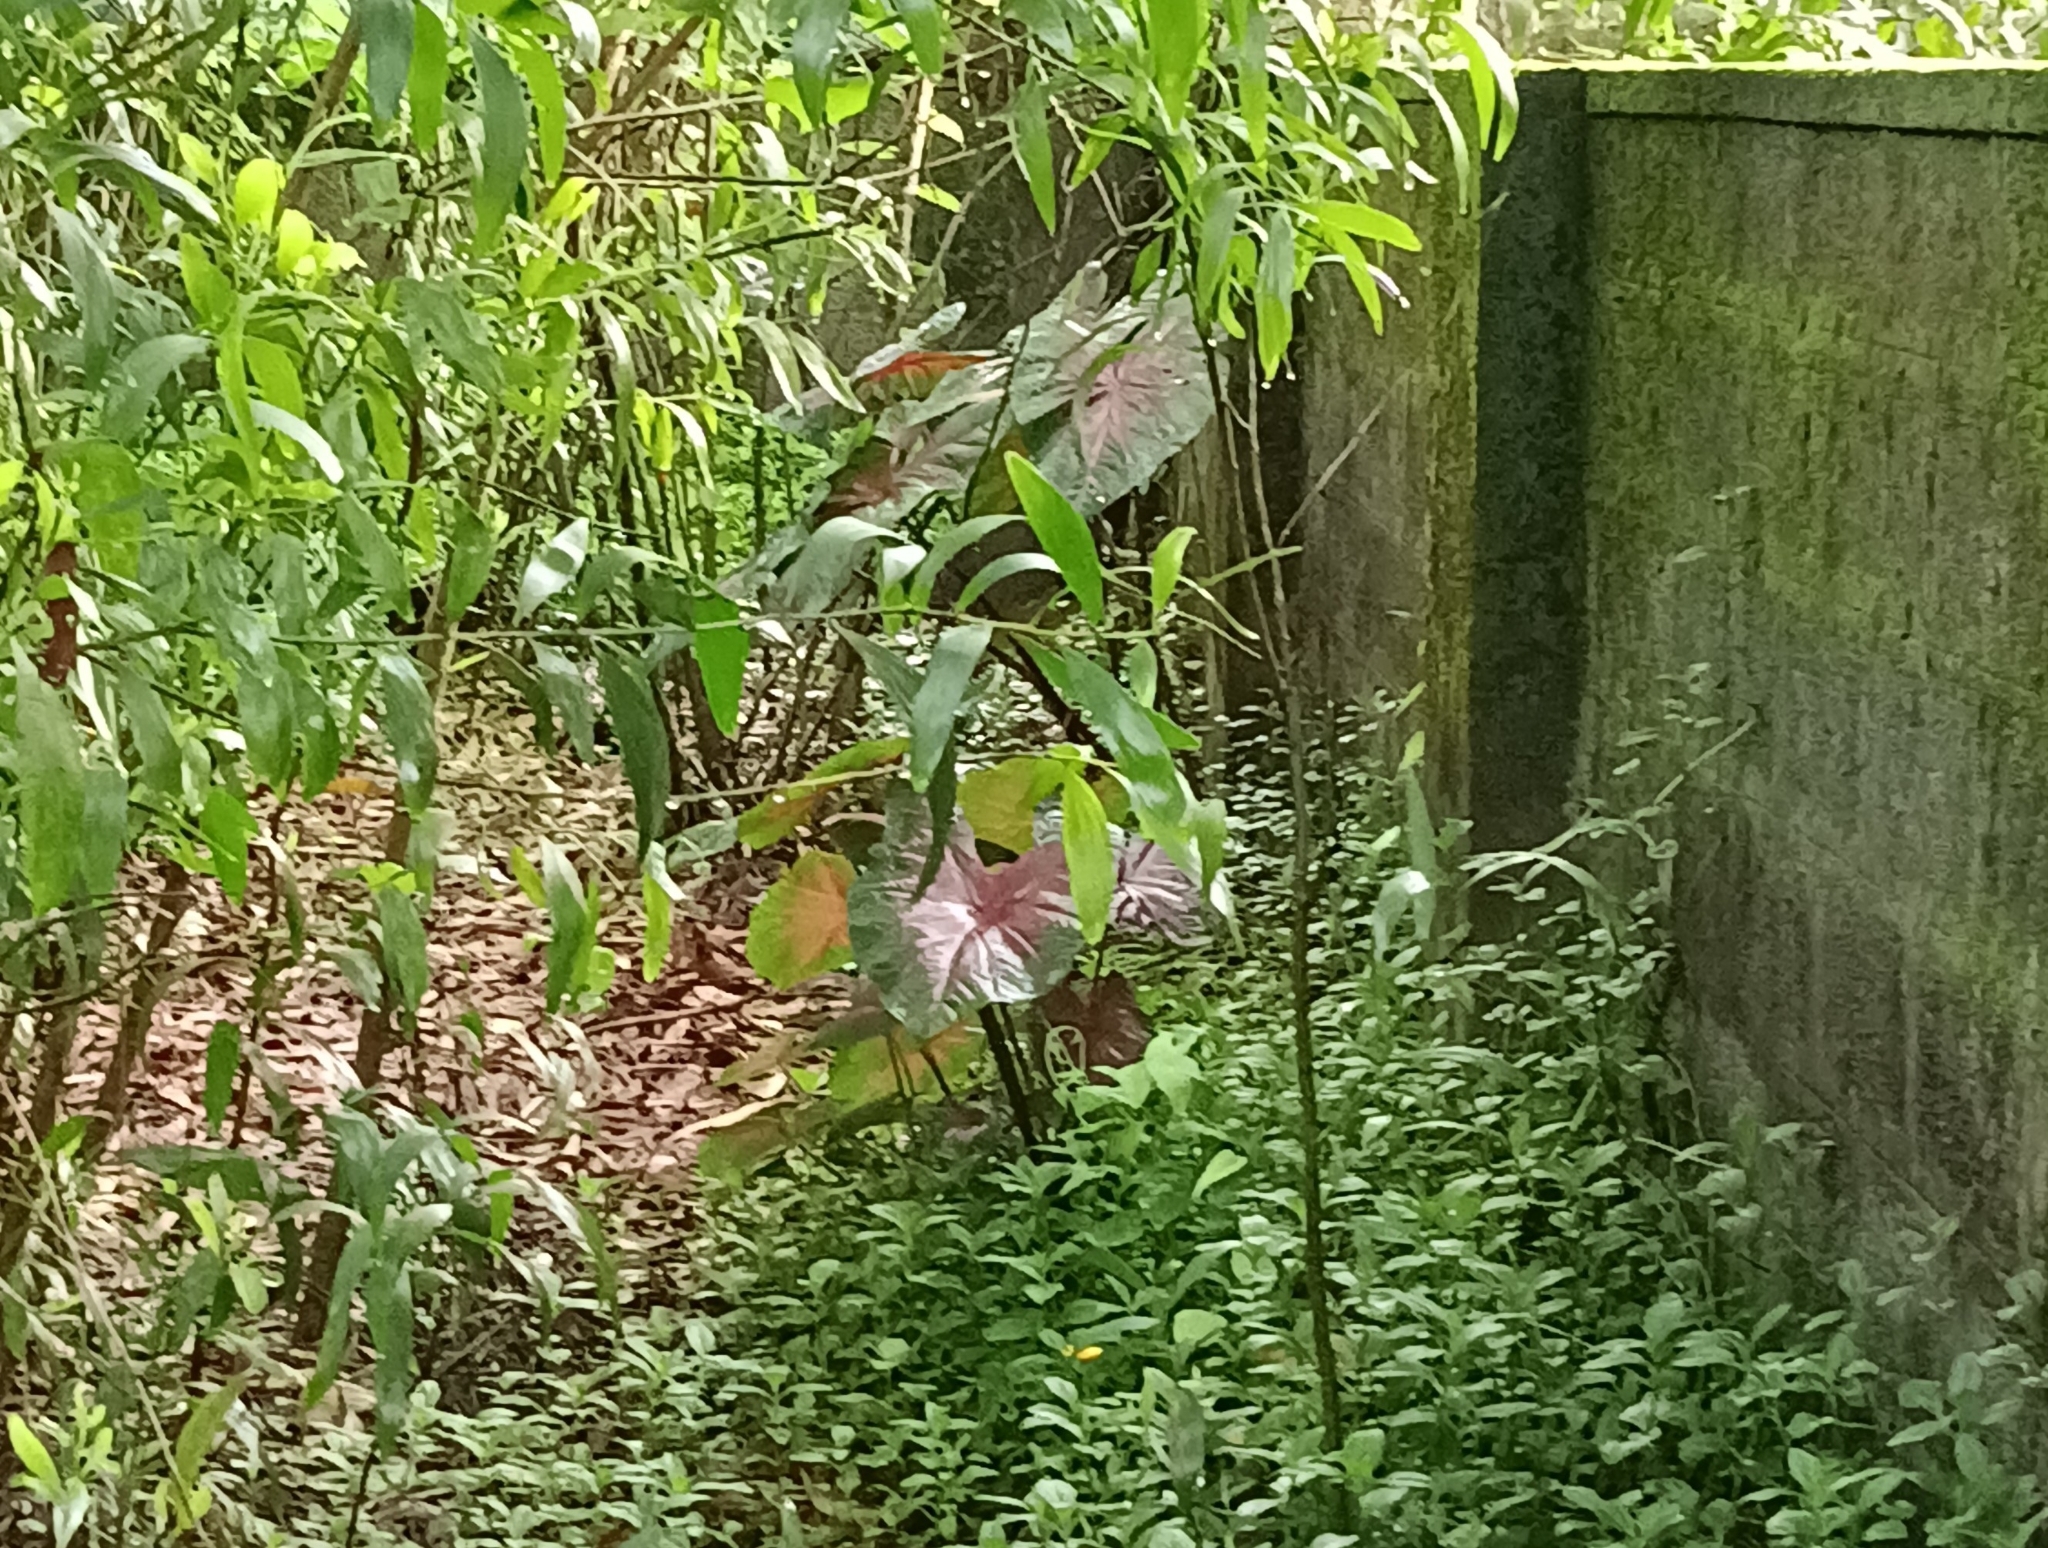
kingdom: Plantae
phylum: Tracheophyta
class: Liliopsida
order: Alismatales
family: Araceae
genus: Caladium
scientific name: Caladium bicolor
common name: Artist's pallet
